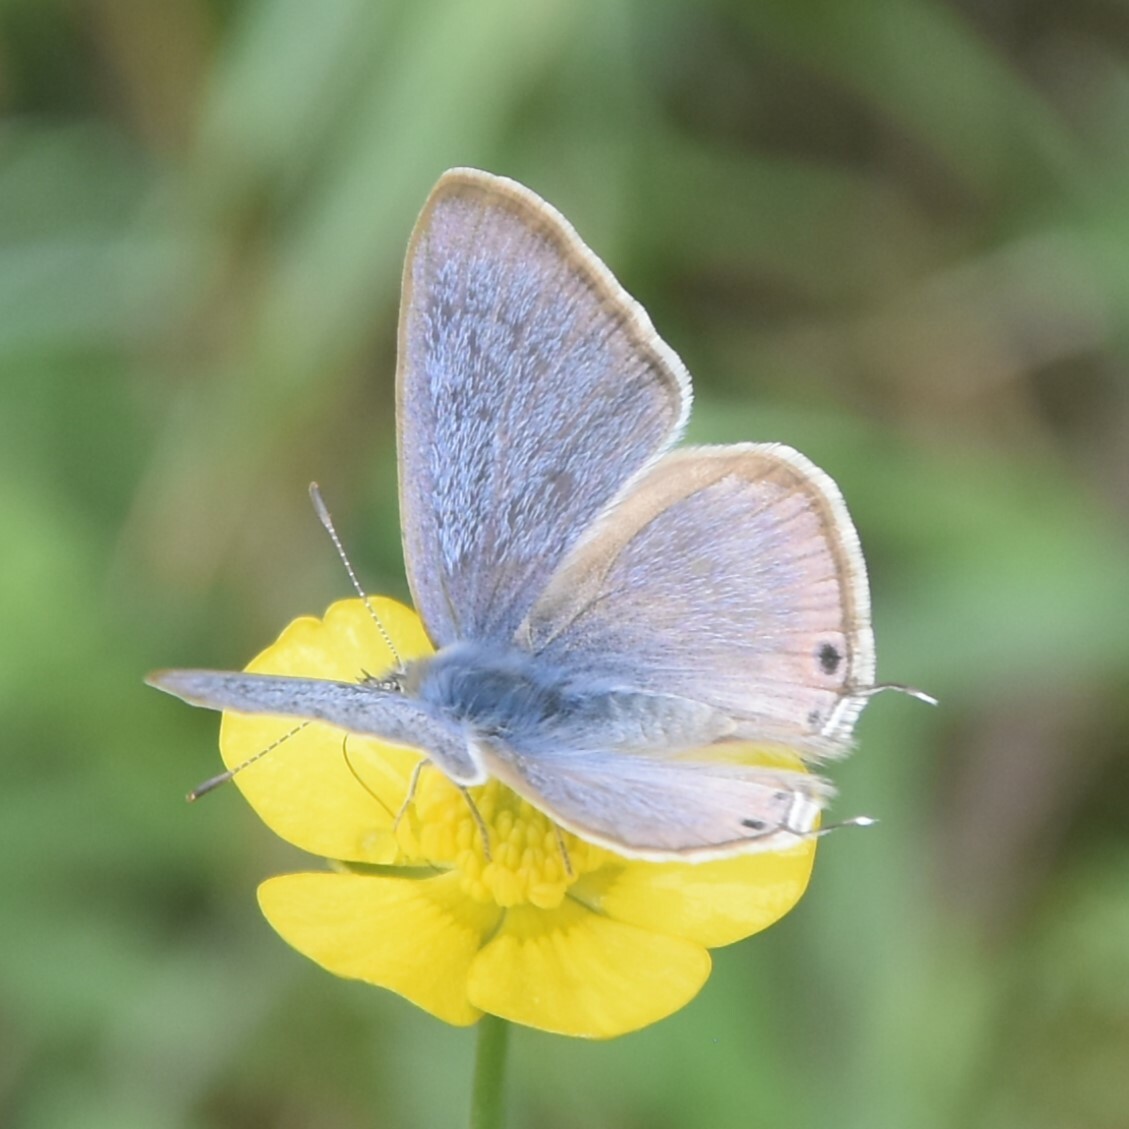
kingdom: Animalia
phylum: Arthropoda
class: Insecta
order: Lepidoptera
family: Lycaenidae
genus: Lampides
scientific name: Lampides boeticus
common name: Long-tailed blue
